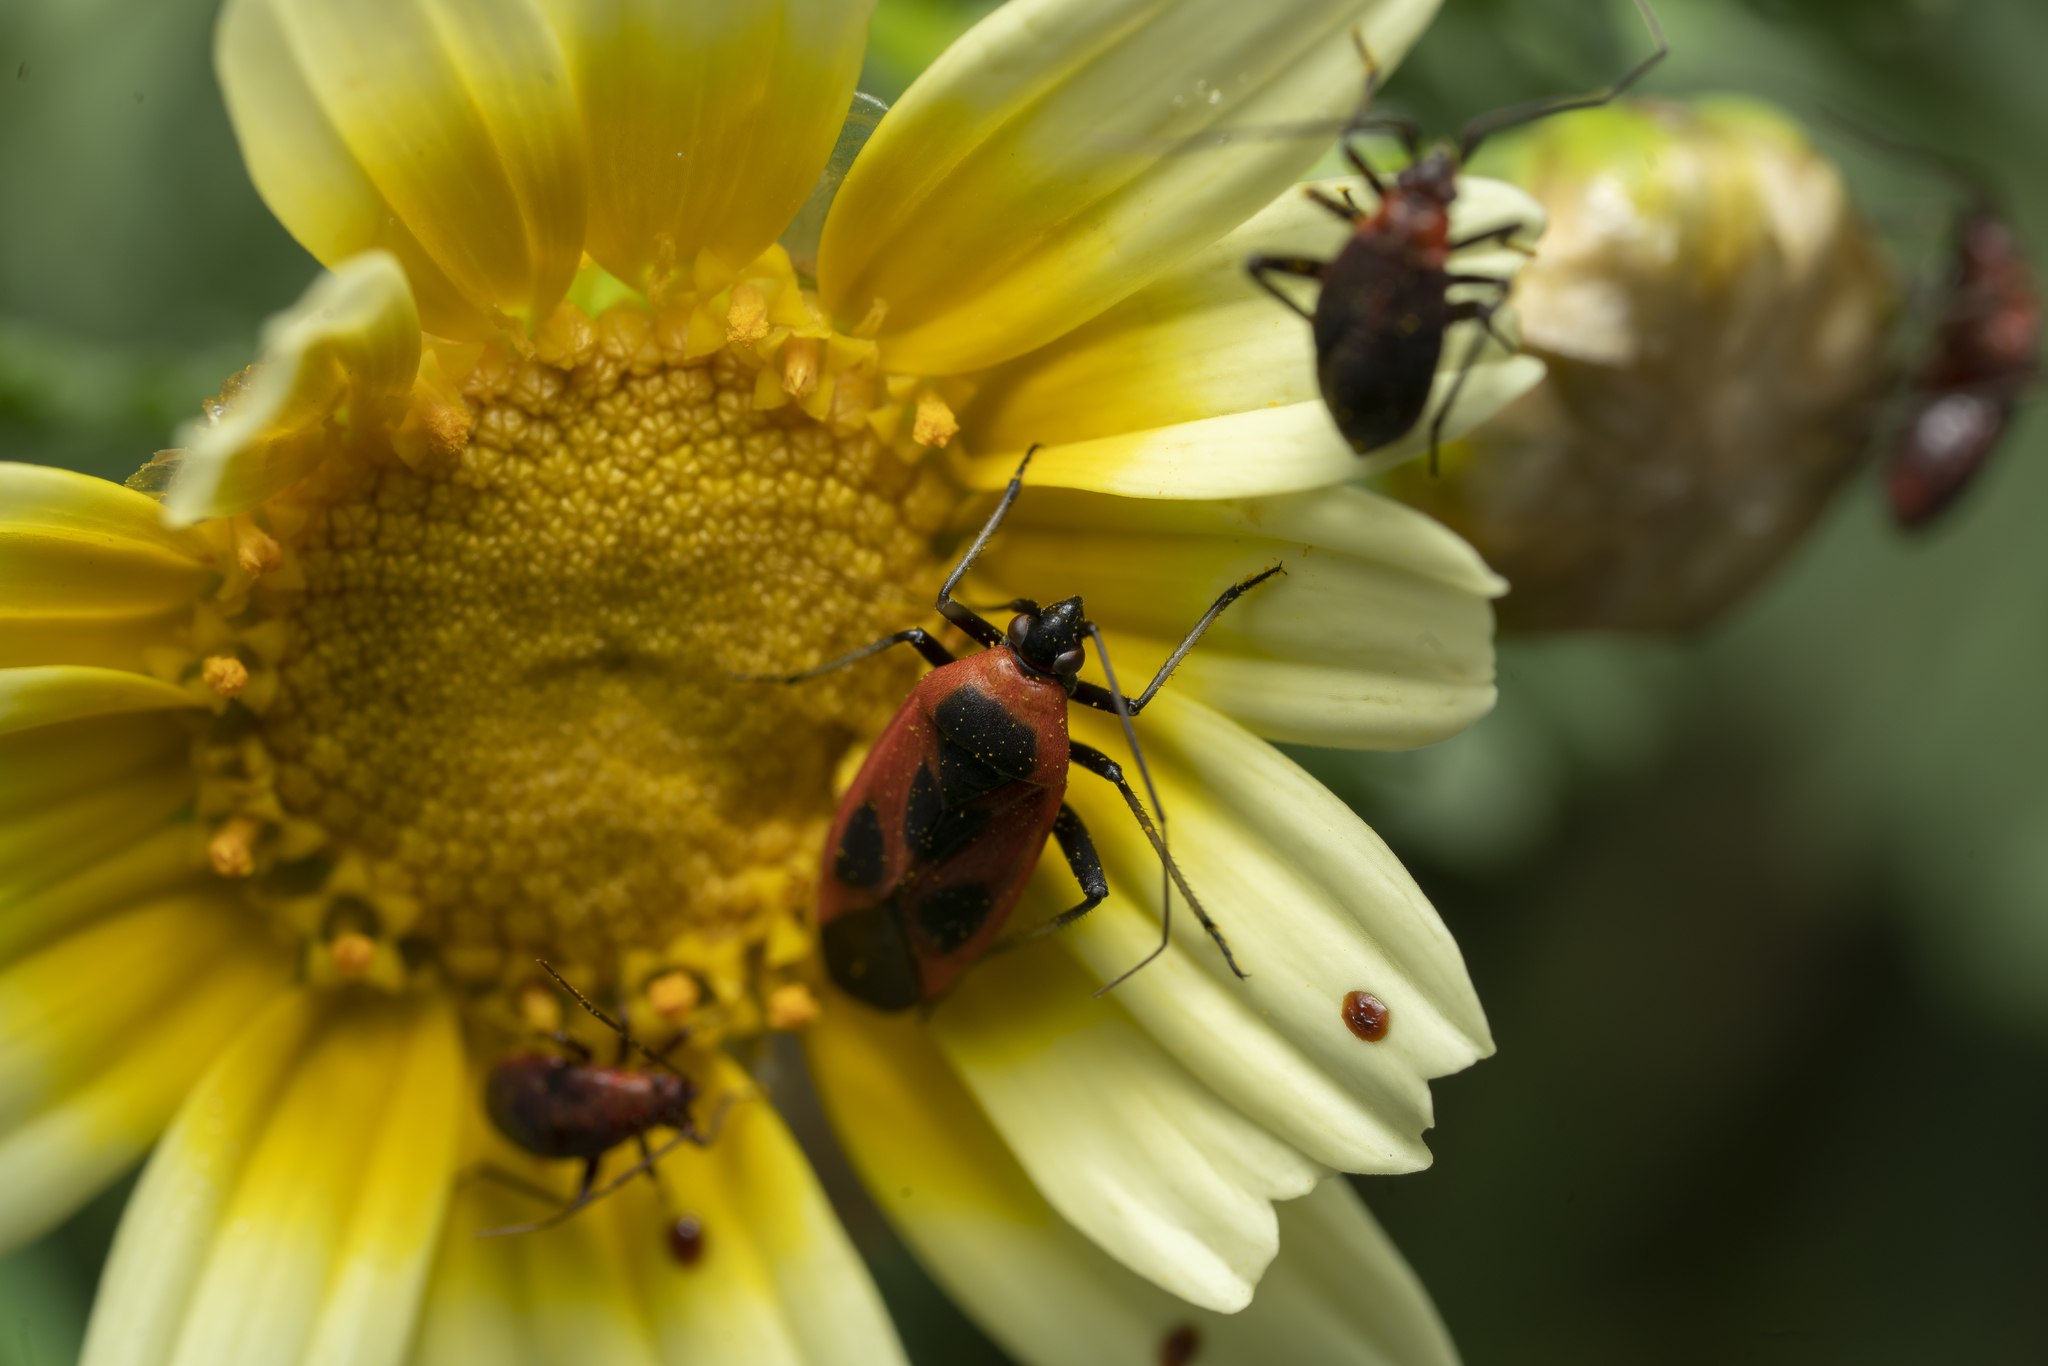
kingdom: Animalia
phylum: Arthropoda
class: Insecta
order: Hemiptera
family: Miridae
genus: Calocoris
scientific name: Calocoris nemoralis
